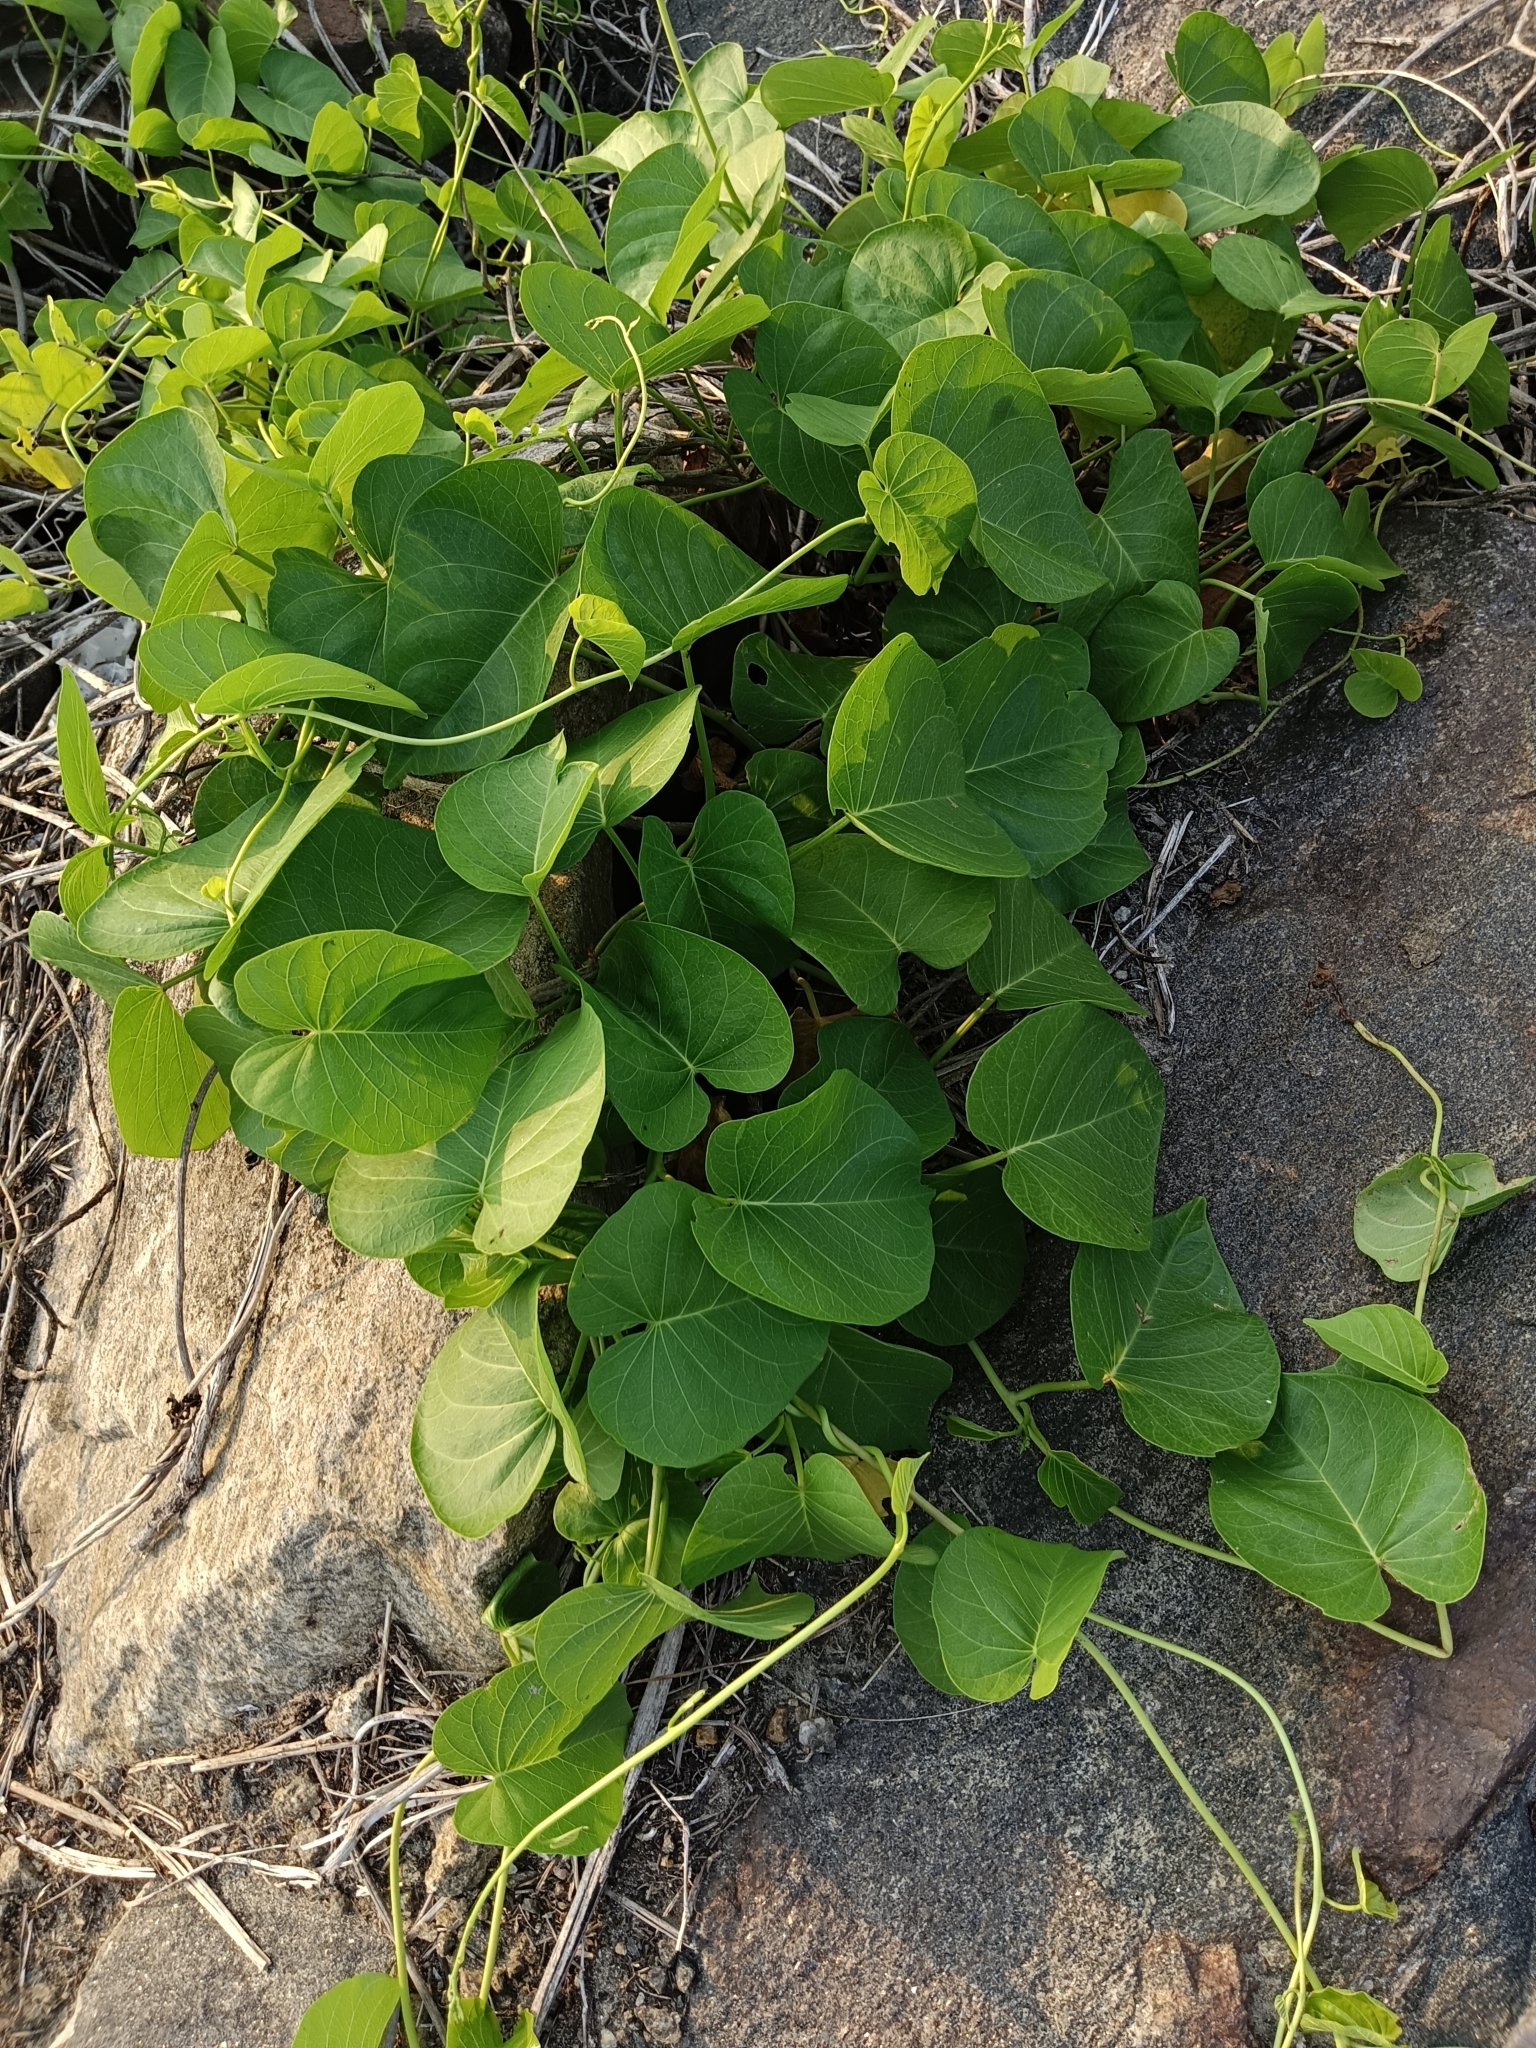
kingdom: Plantae
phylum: Tracheophyta
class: Magnoliopsida
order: Solanales
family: Convolvulaceae
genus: Ipomoea
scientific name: Ipomoea violacea
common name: Beach moonflower
